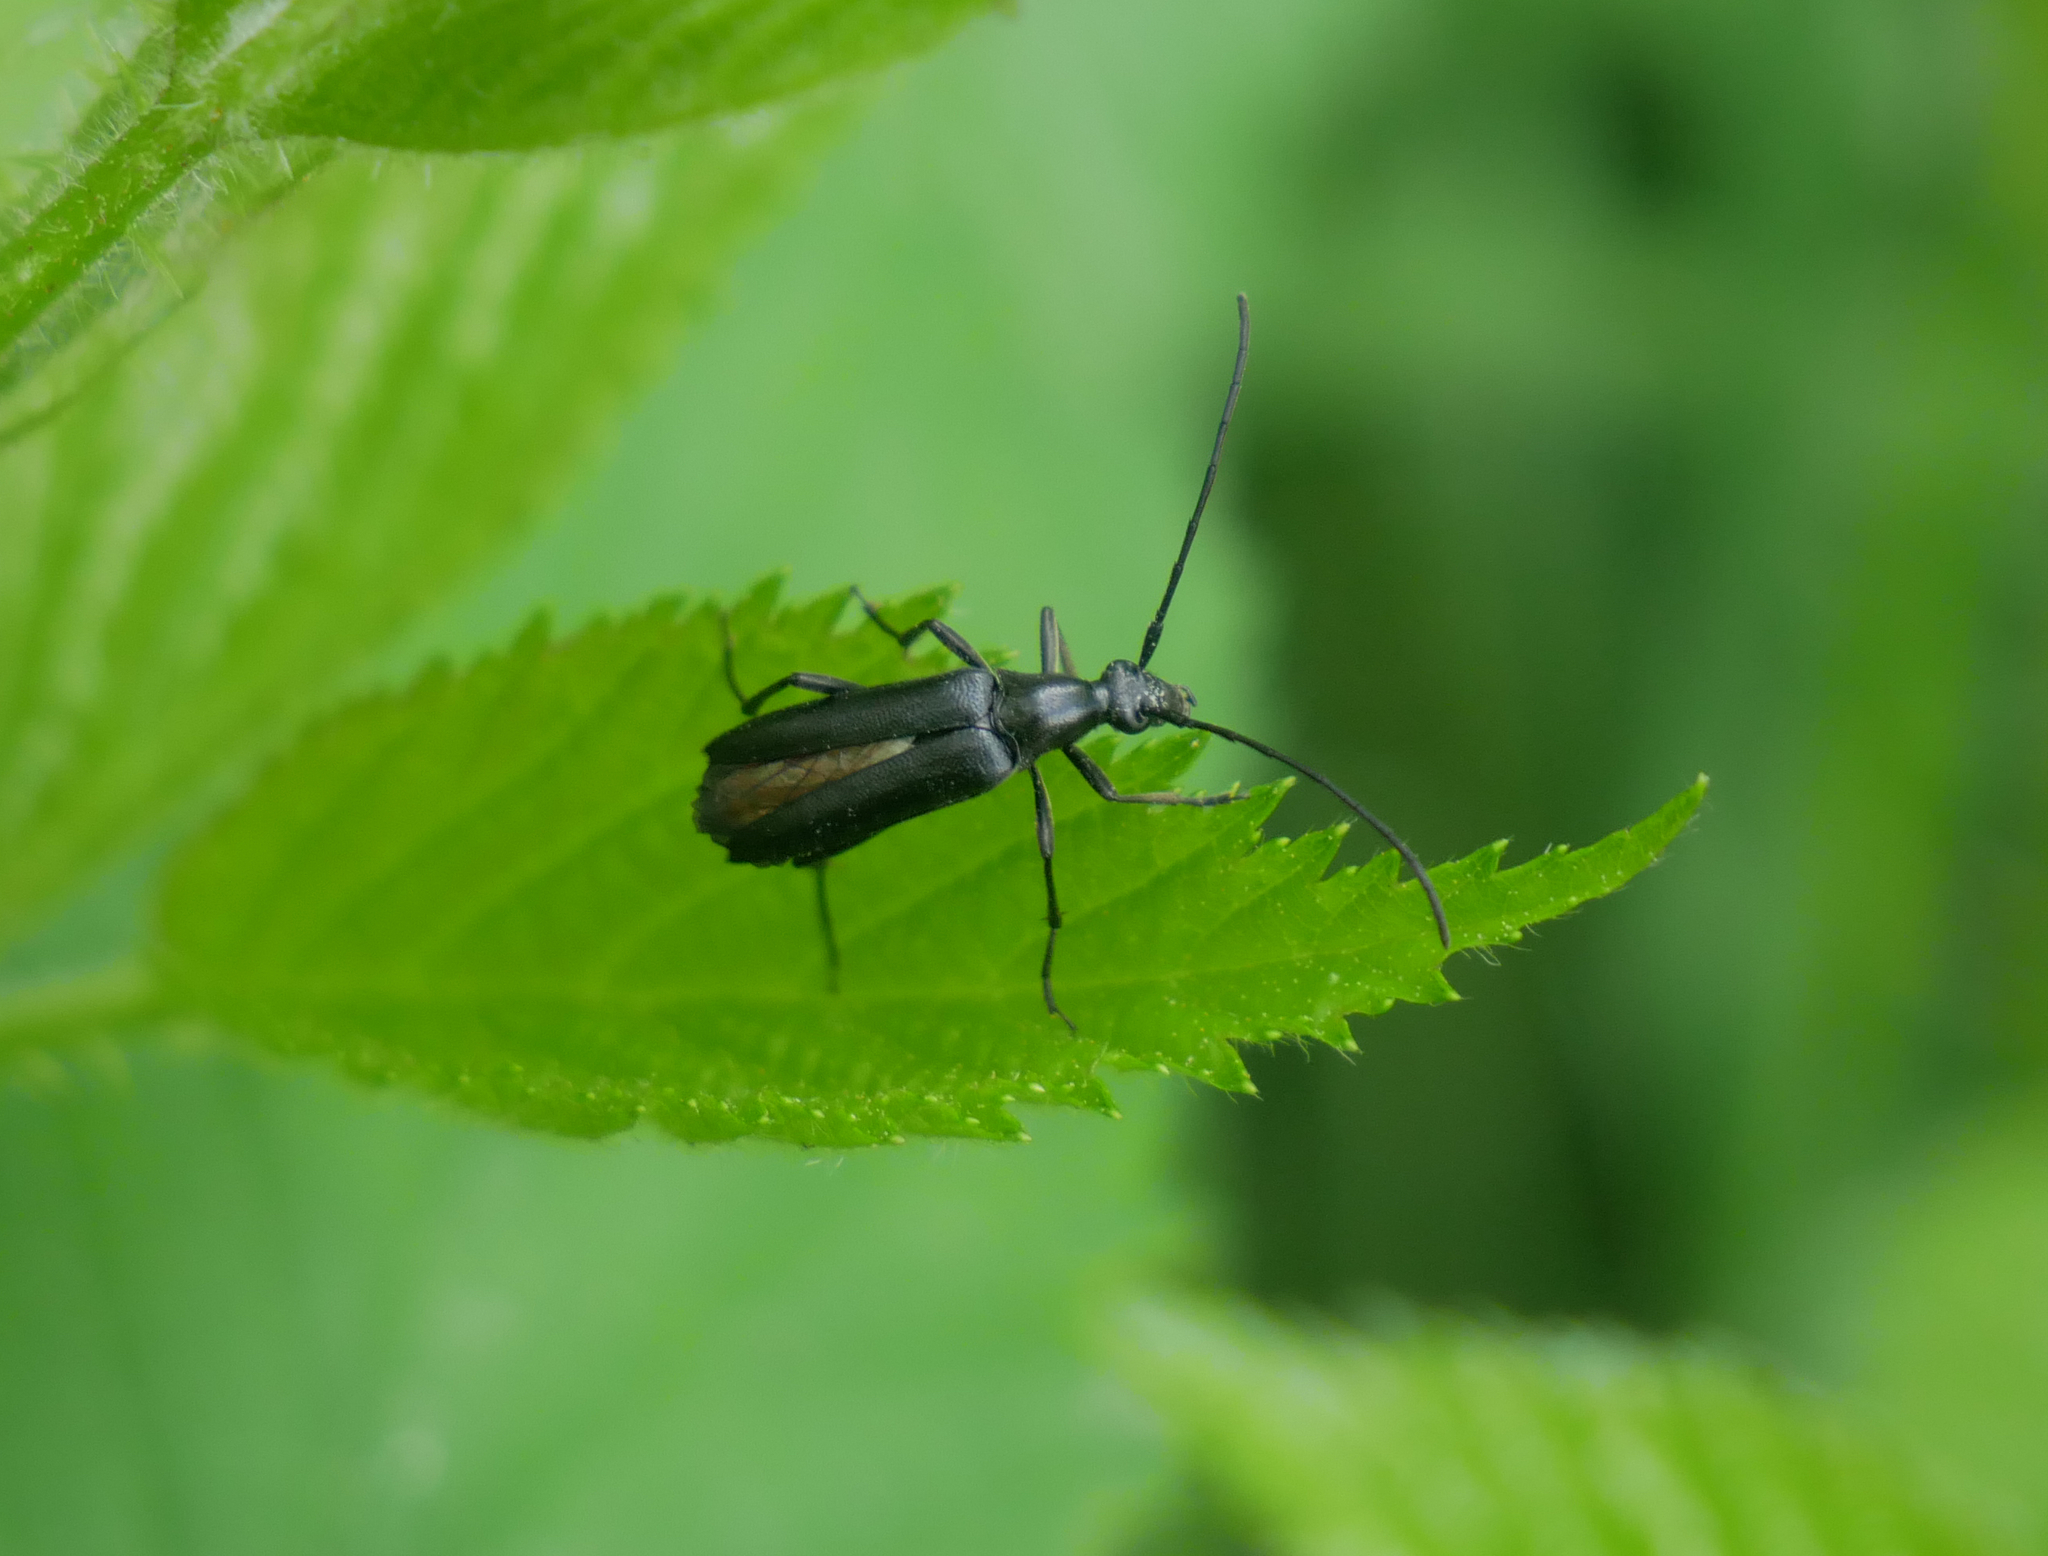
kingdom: Animalia
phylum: Arthropoda
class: Insecta
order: Coleoptera
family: Cerambycidae
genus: Stenurella
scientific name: Stenurella nigra
